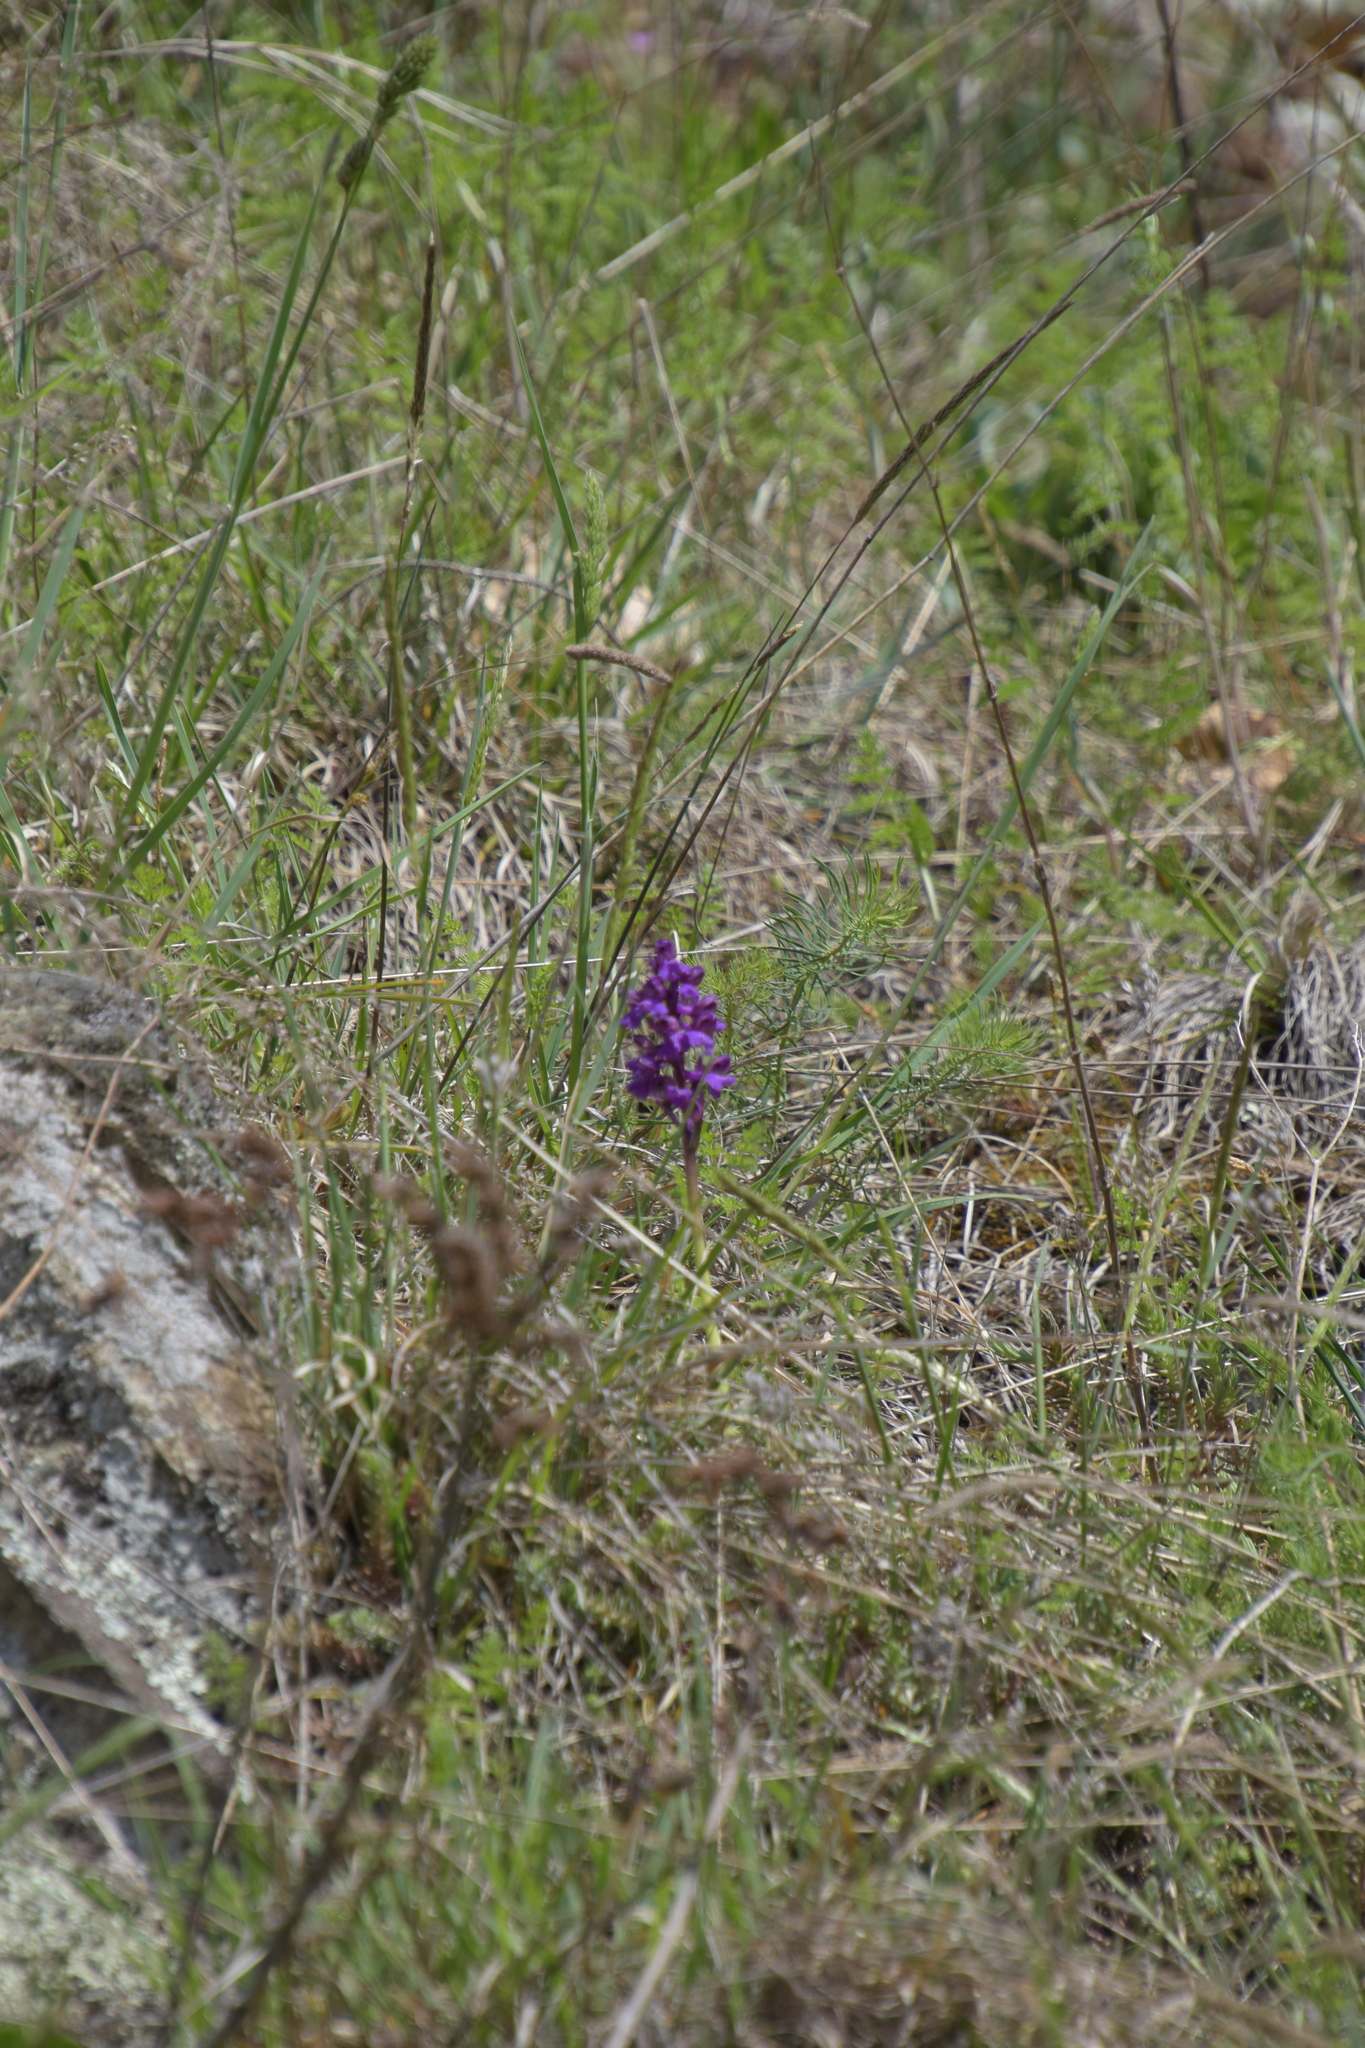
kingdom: Plantae
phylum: Tracheophyta
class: Liliopsida
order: Asparagales
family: Orchidaceae
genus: Anacamptis
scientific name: Anacamptis morio
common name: Green-winged orchid
